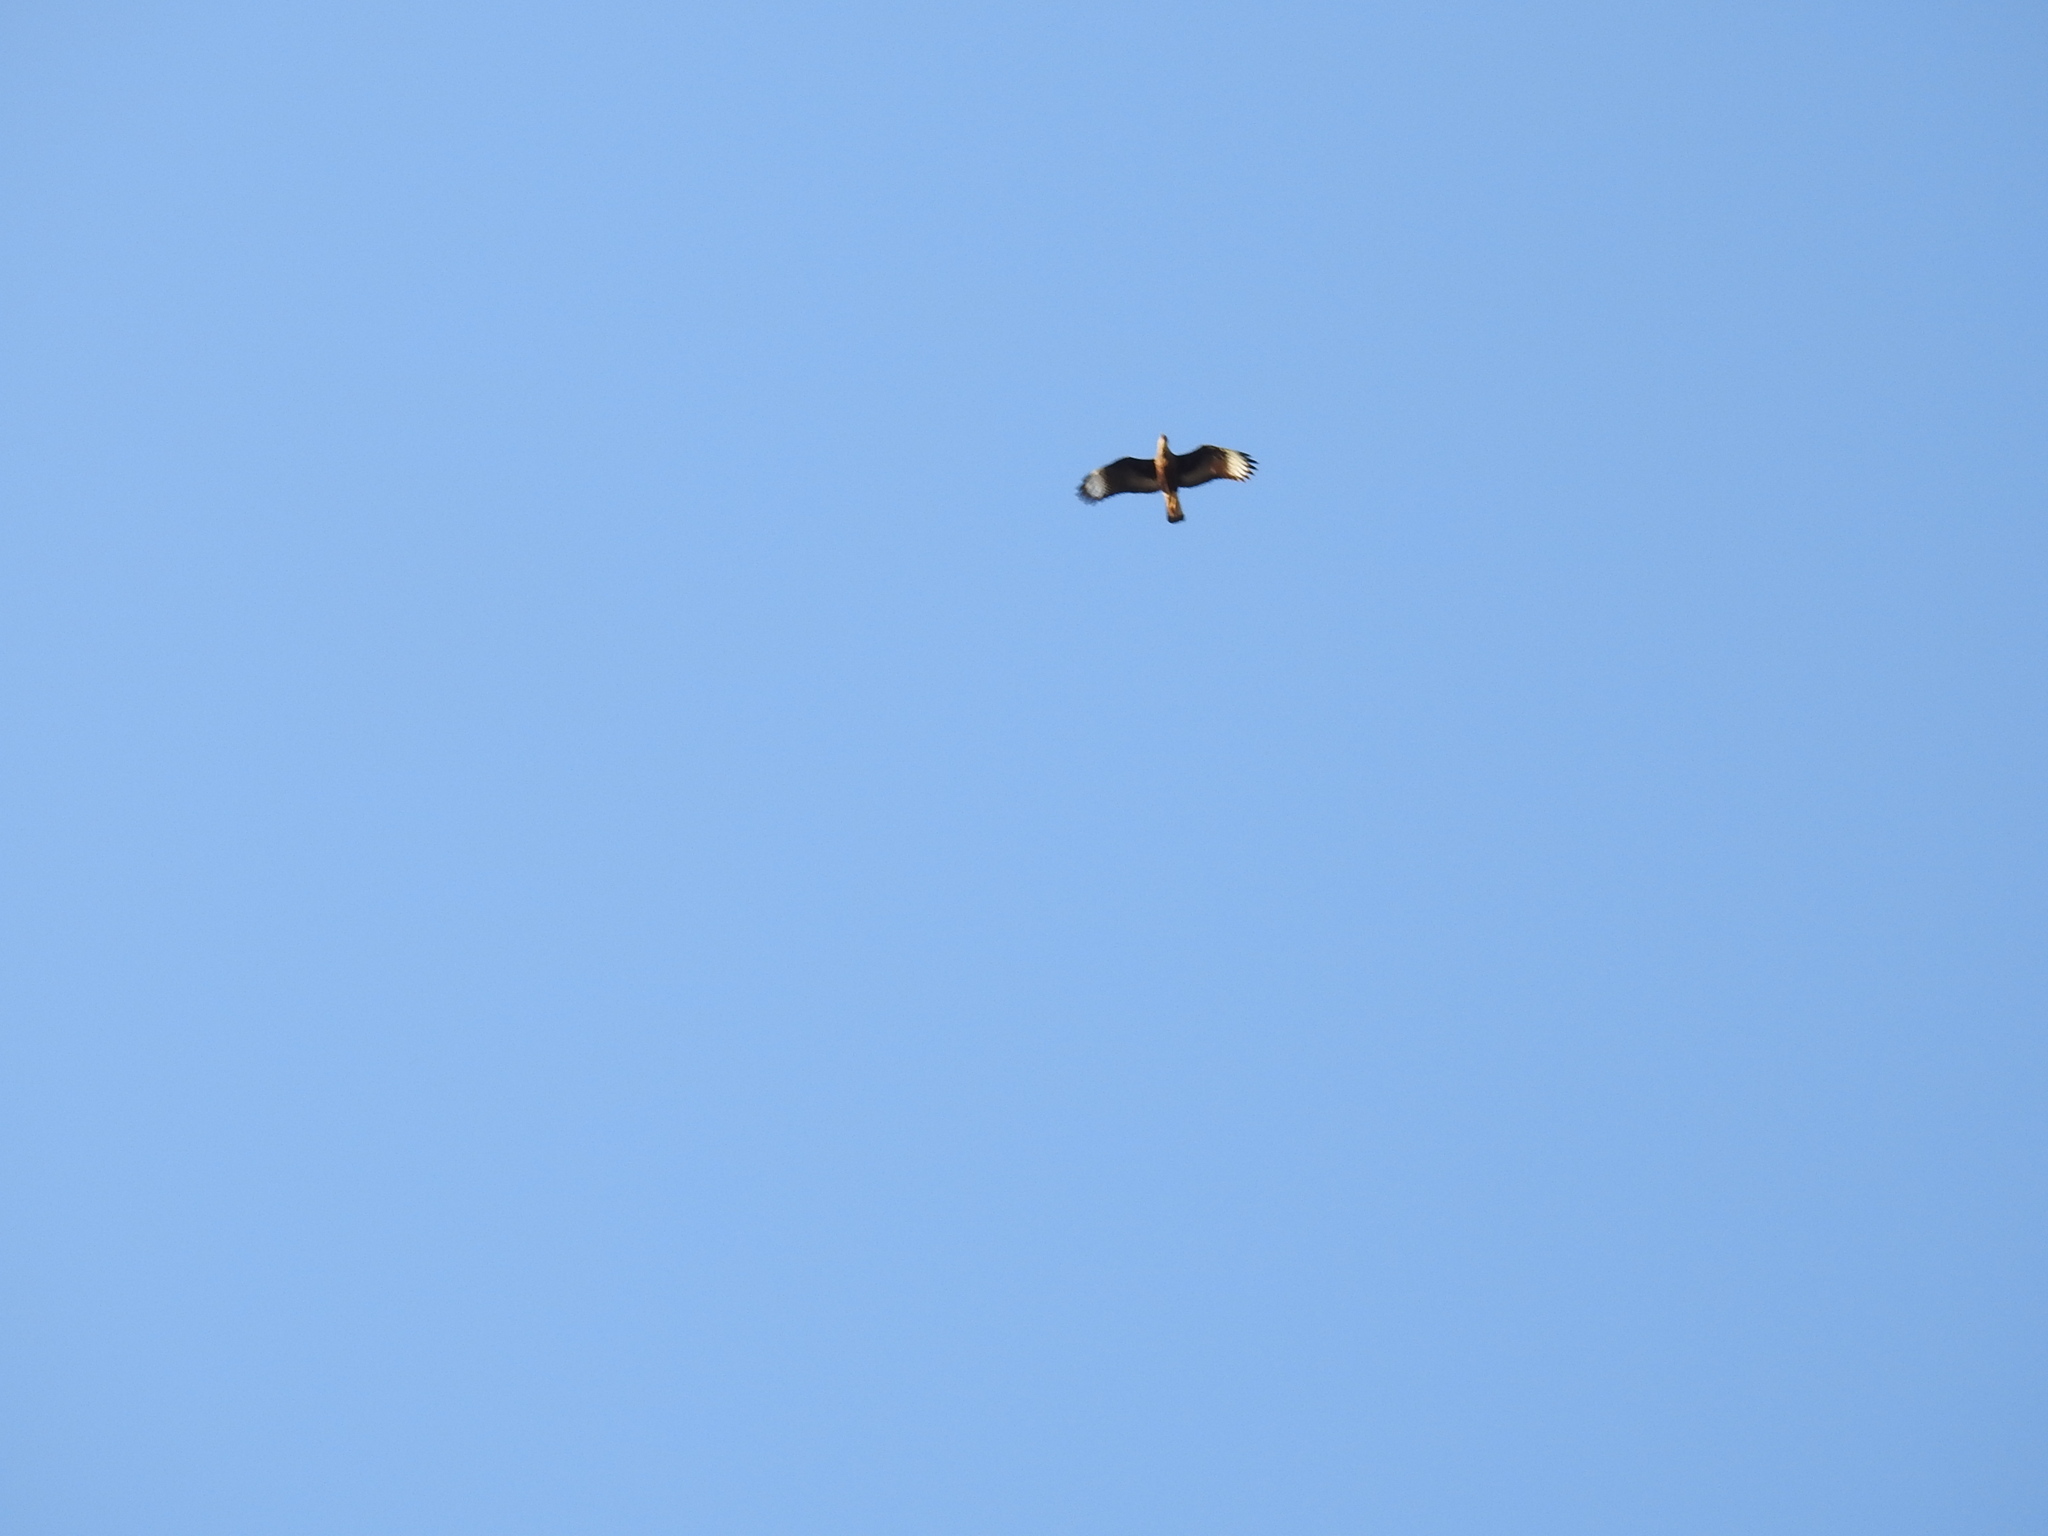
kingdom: Animalia
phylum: Chordata
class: Aves
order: Falconiformes
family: Falconidae
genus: Caracara
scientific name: Caracara plancus
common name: Southern caracara
